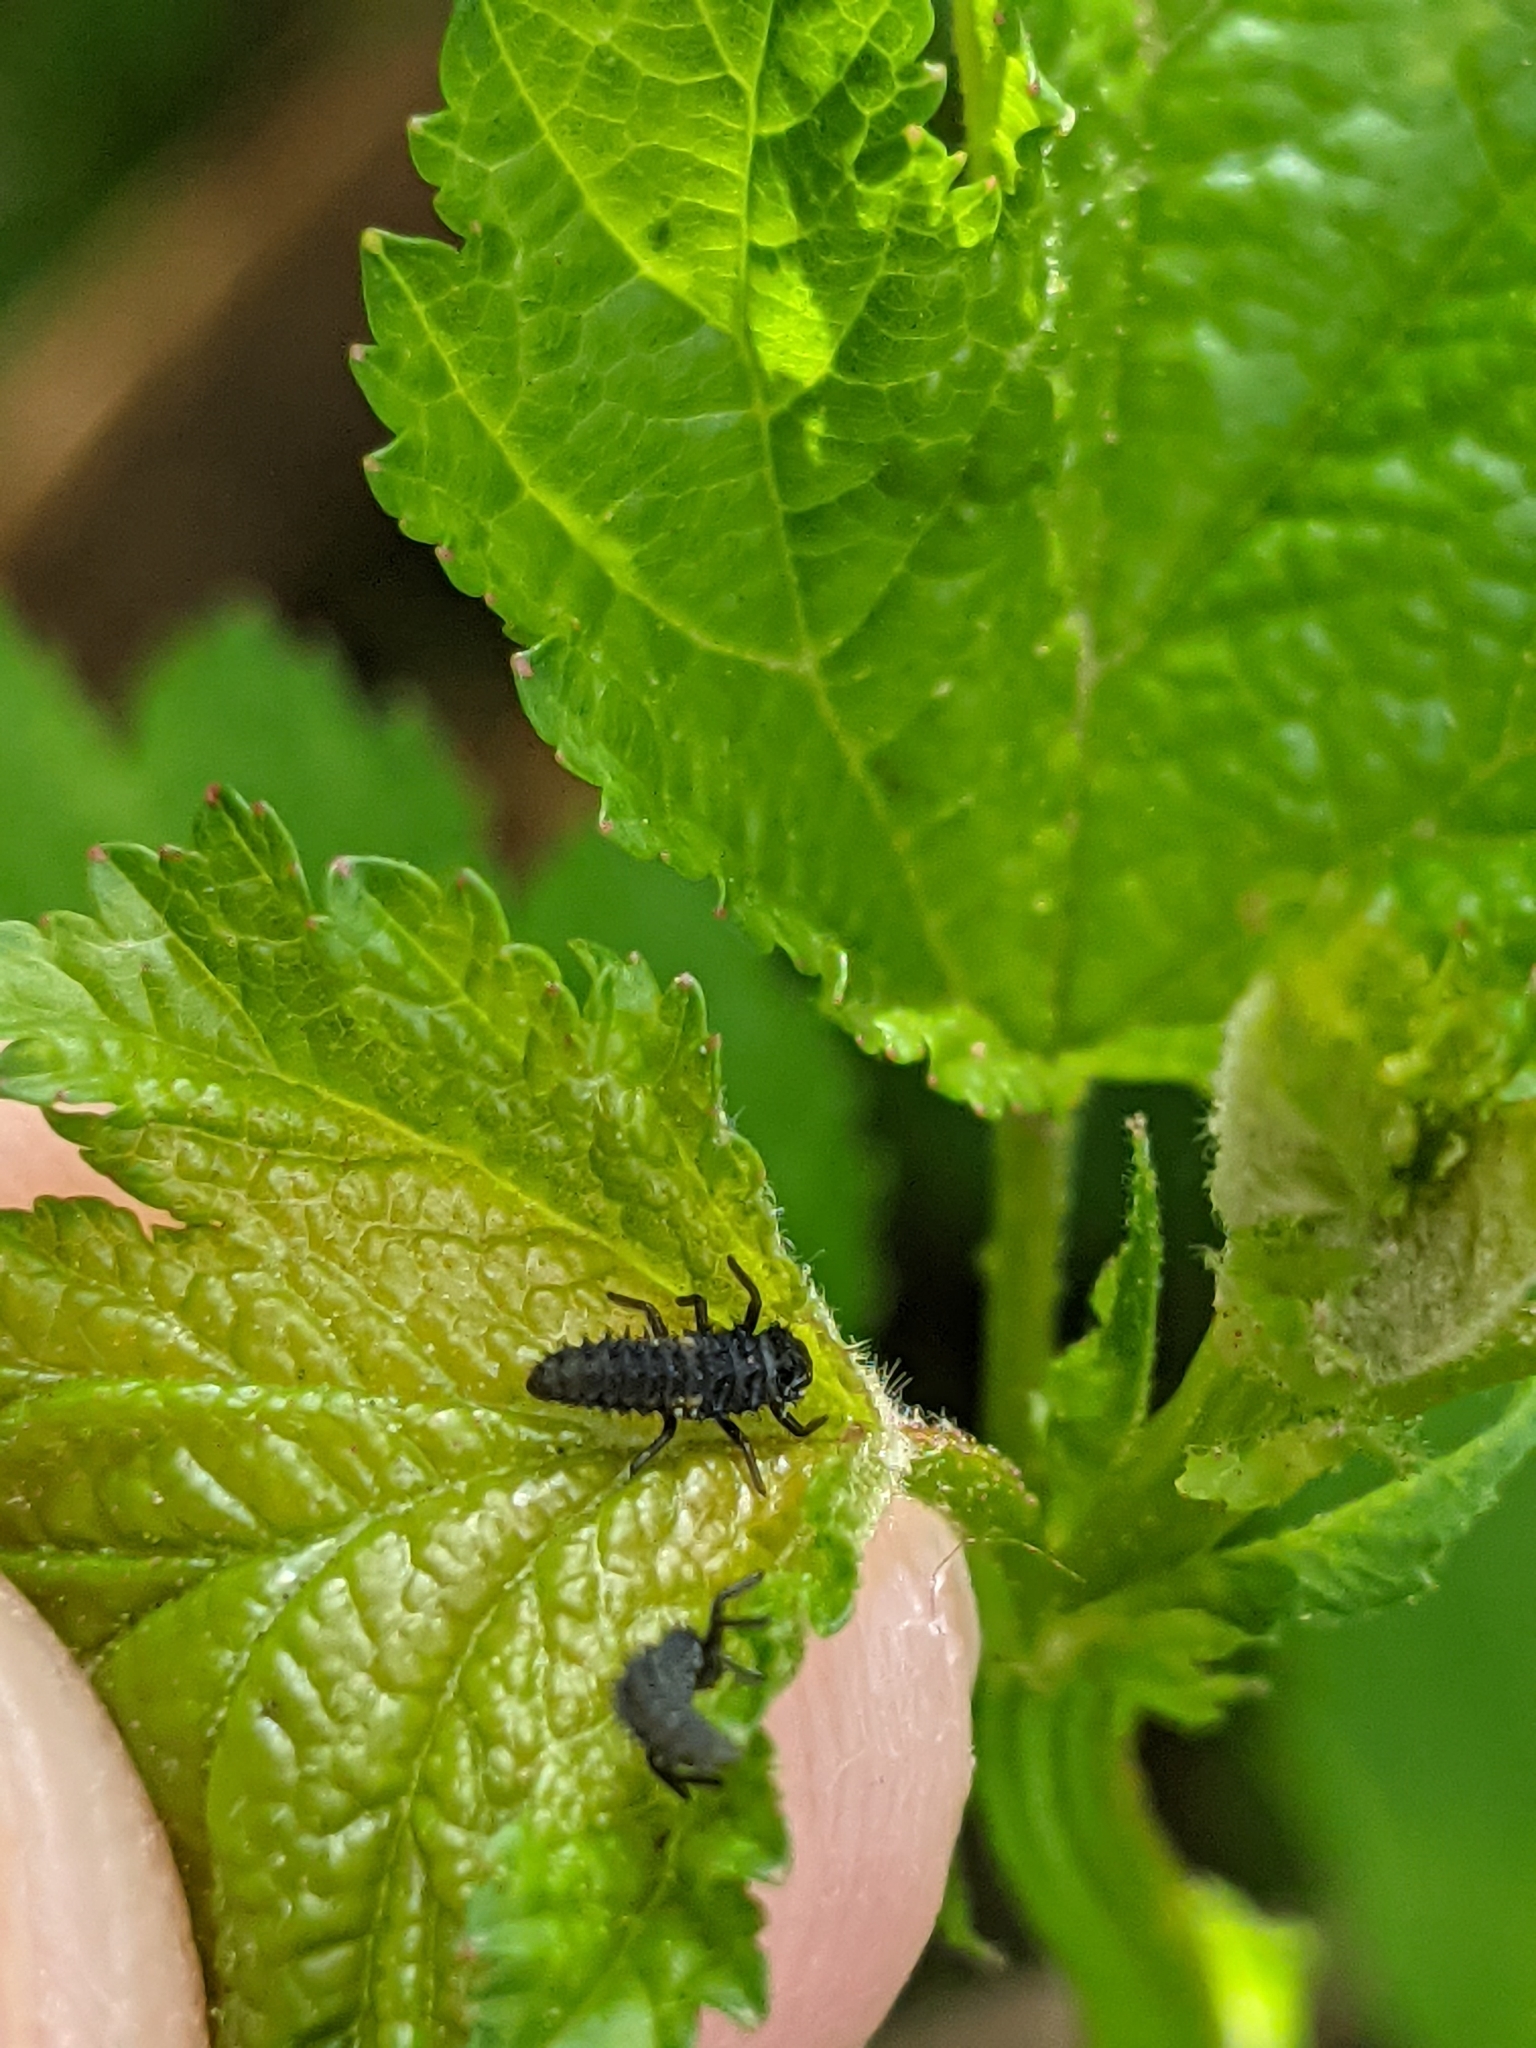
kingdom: Animalia
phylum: Arthropoda
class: Insecta
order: Coleoptera
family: Coccinellidae
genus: Harmonia
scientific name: Harmonia axyridis
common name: Harlequin ladybird
